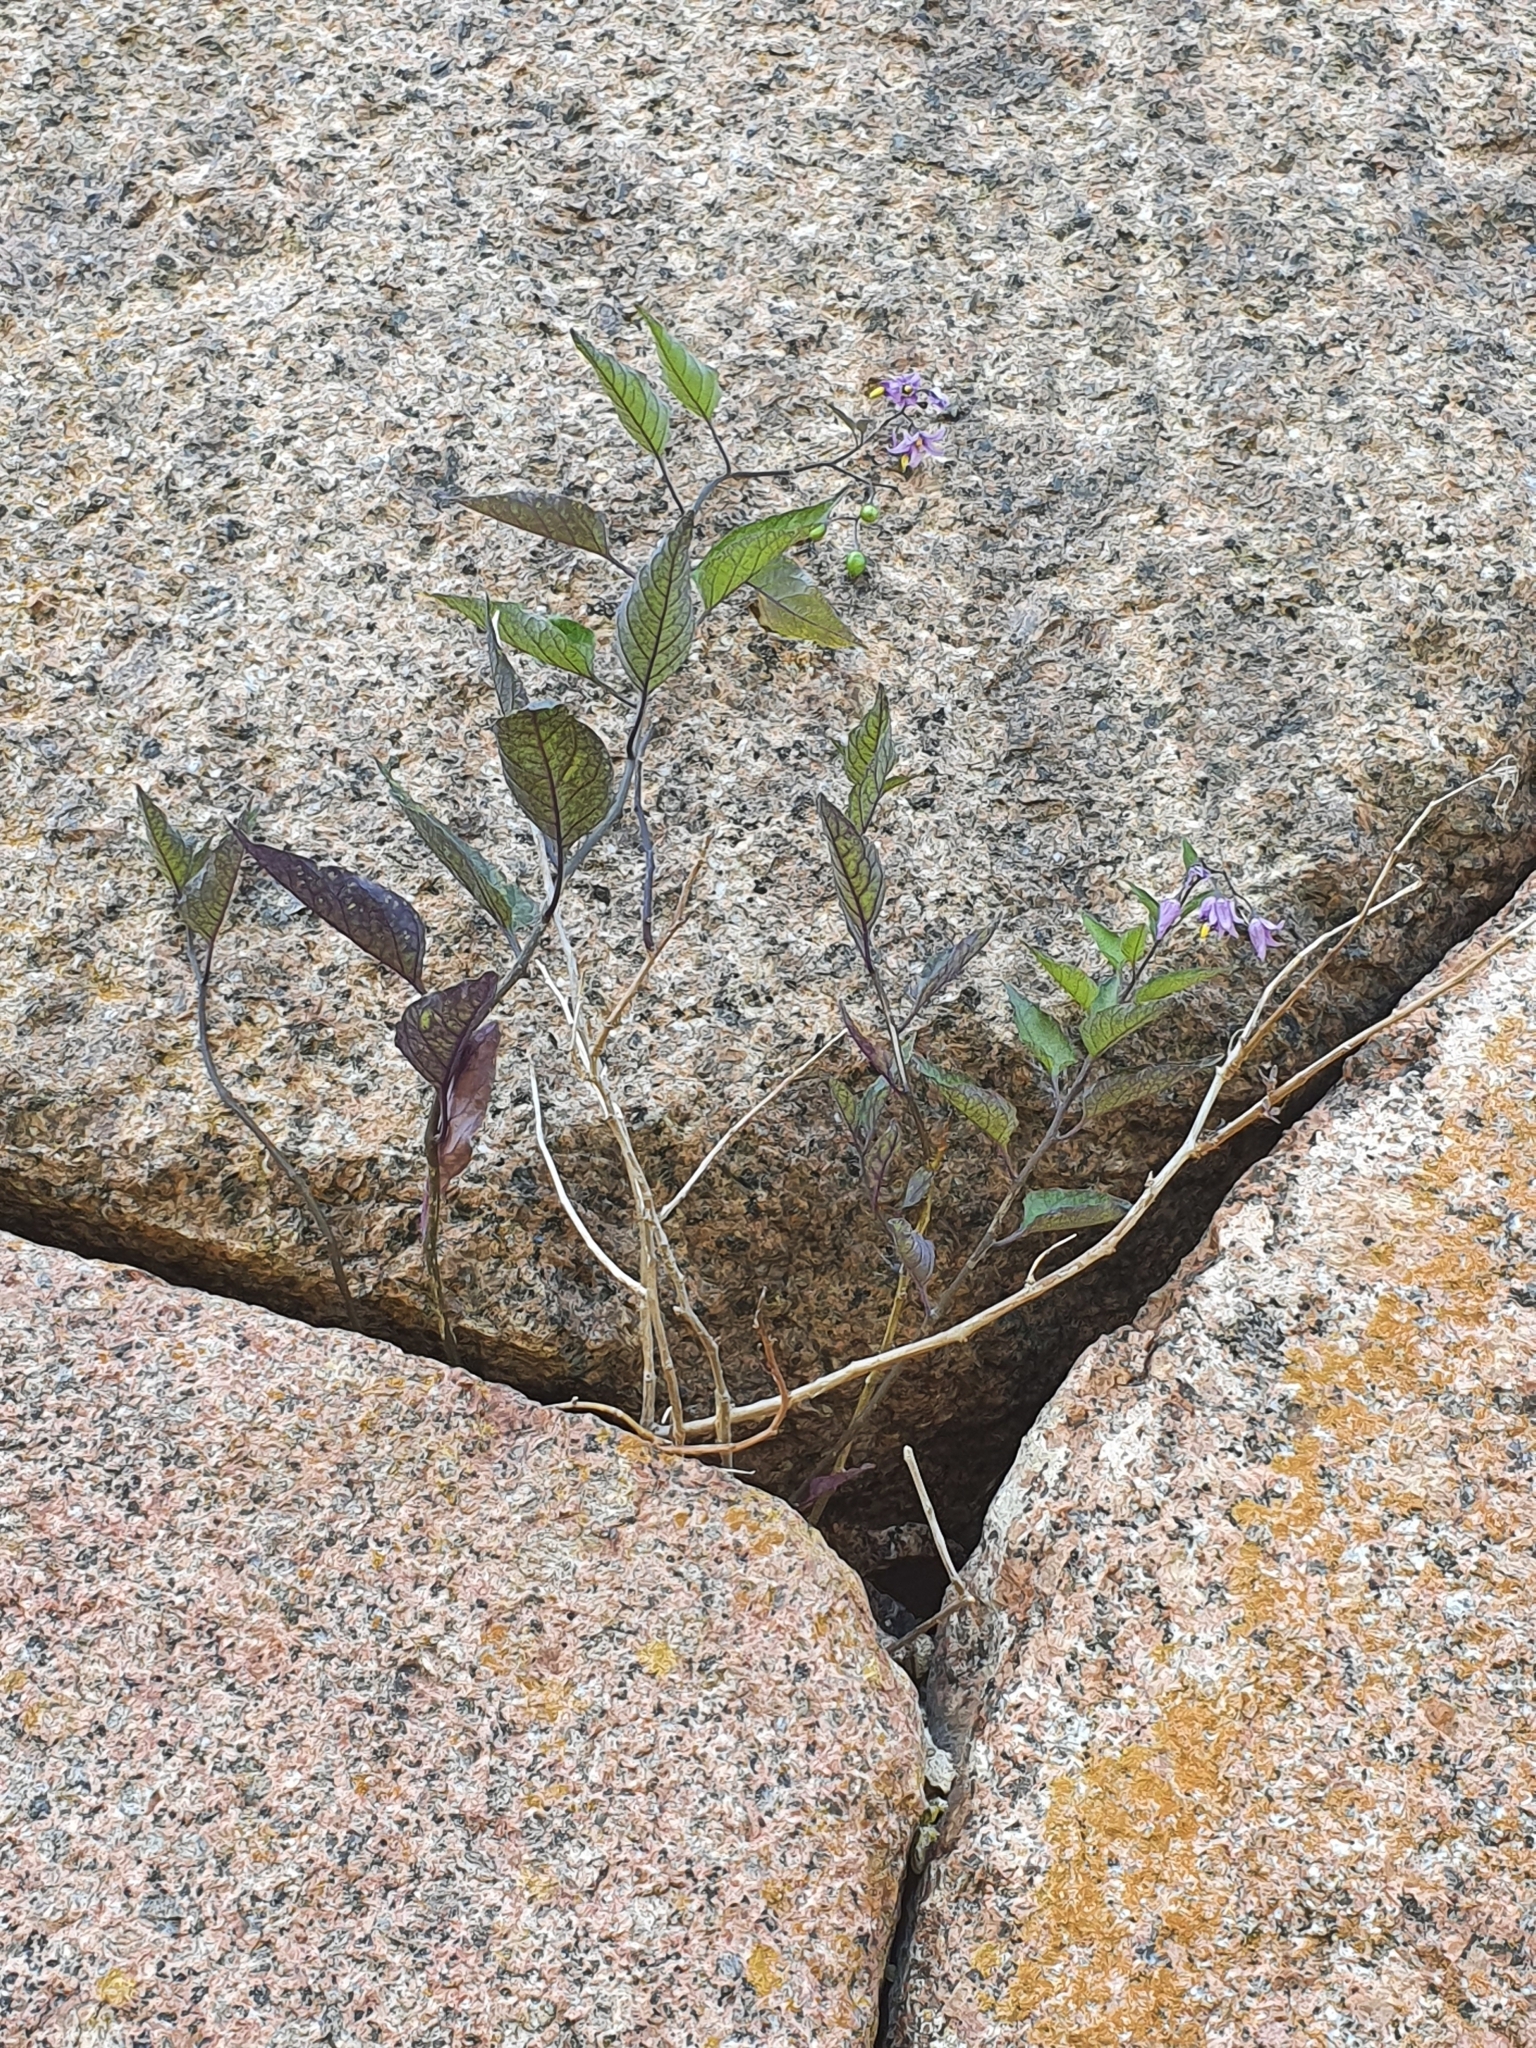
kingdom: Plantae
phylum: Tracheophyta
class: Magnoliopsida
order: Solanales
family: Solanaceae
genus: Solanum
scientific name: Solanum dulcamara
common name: Climbing nightshade
